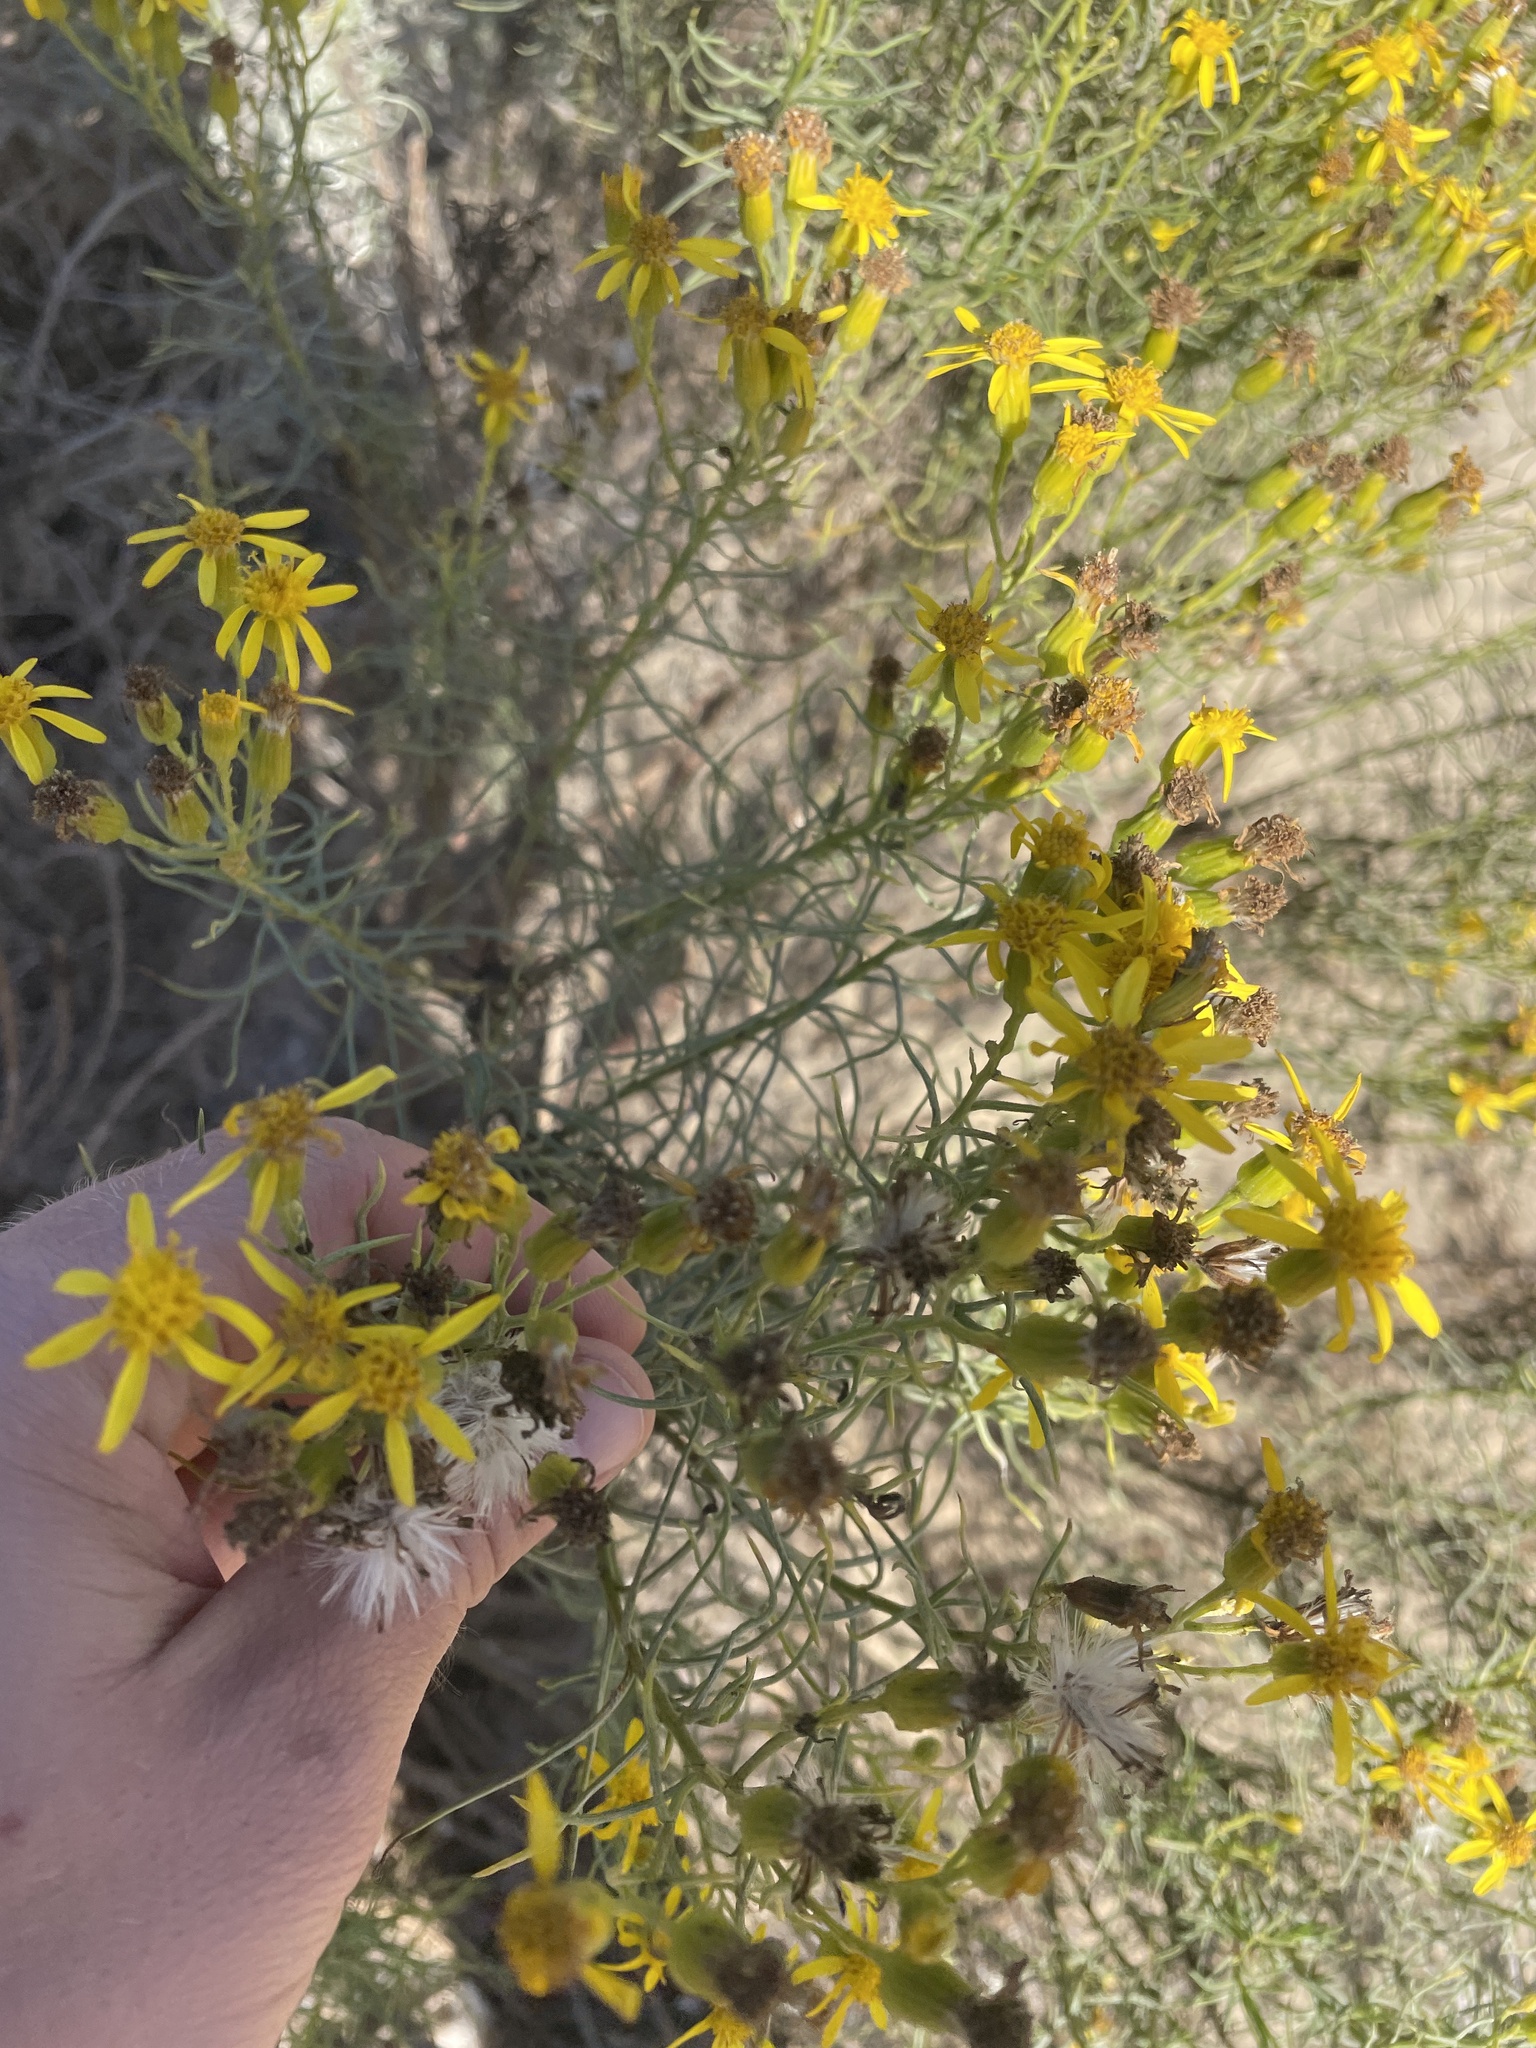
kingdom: Plantae
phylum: Tracheophyta
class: Magnoliopsida
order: Asterales
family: Asteraceae
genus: Senecio
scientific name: Senecio flaccidus
